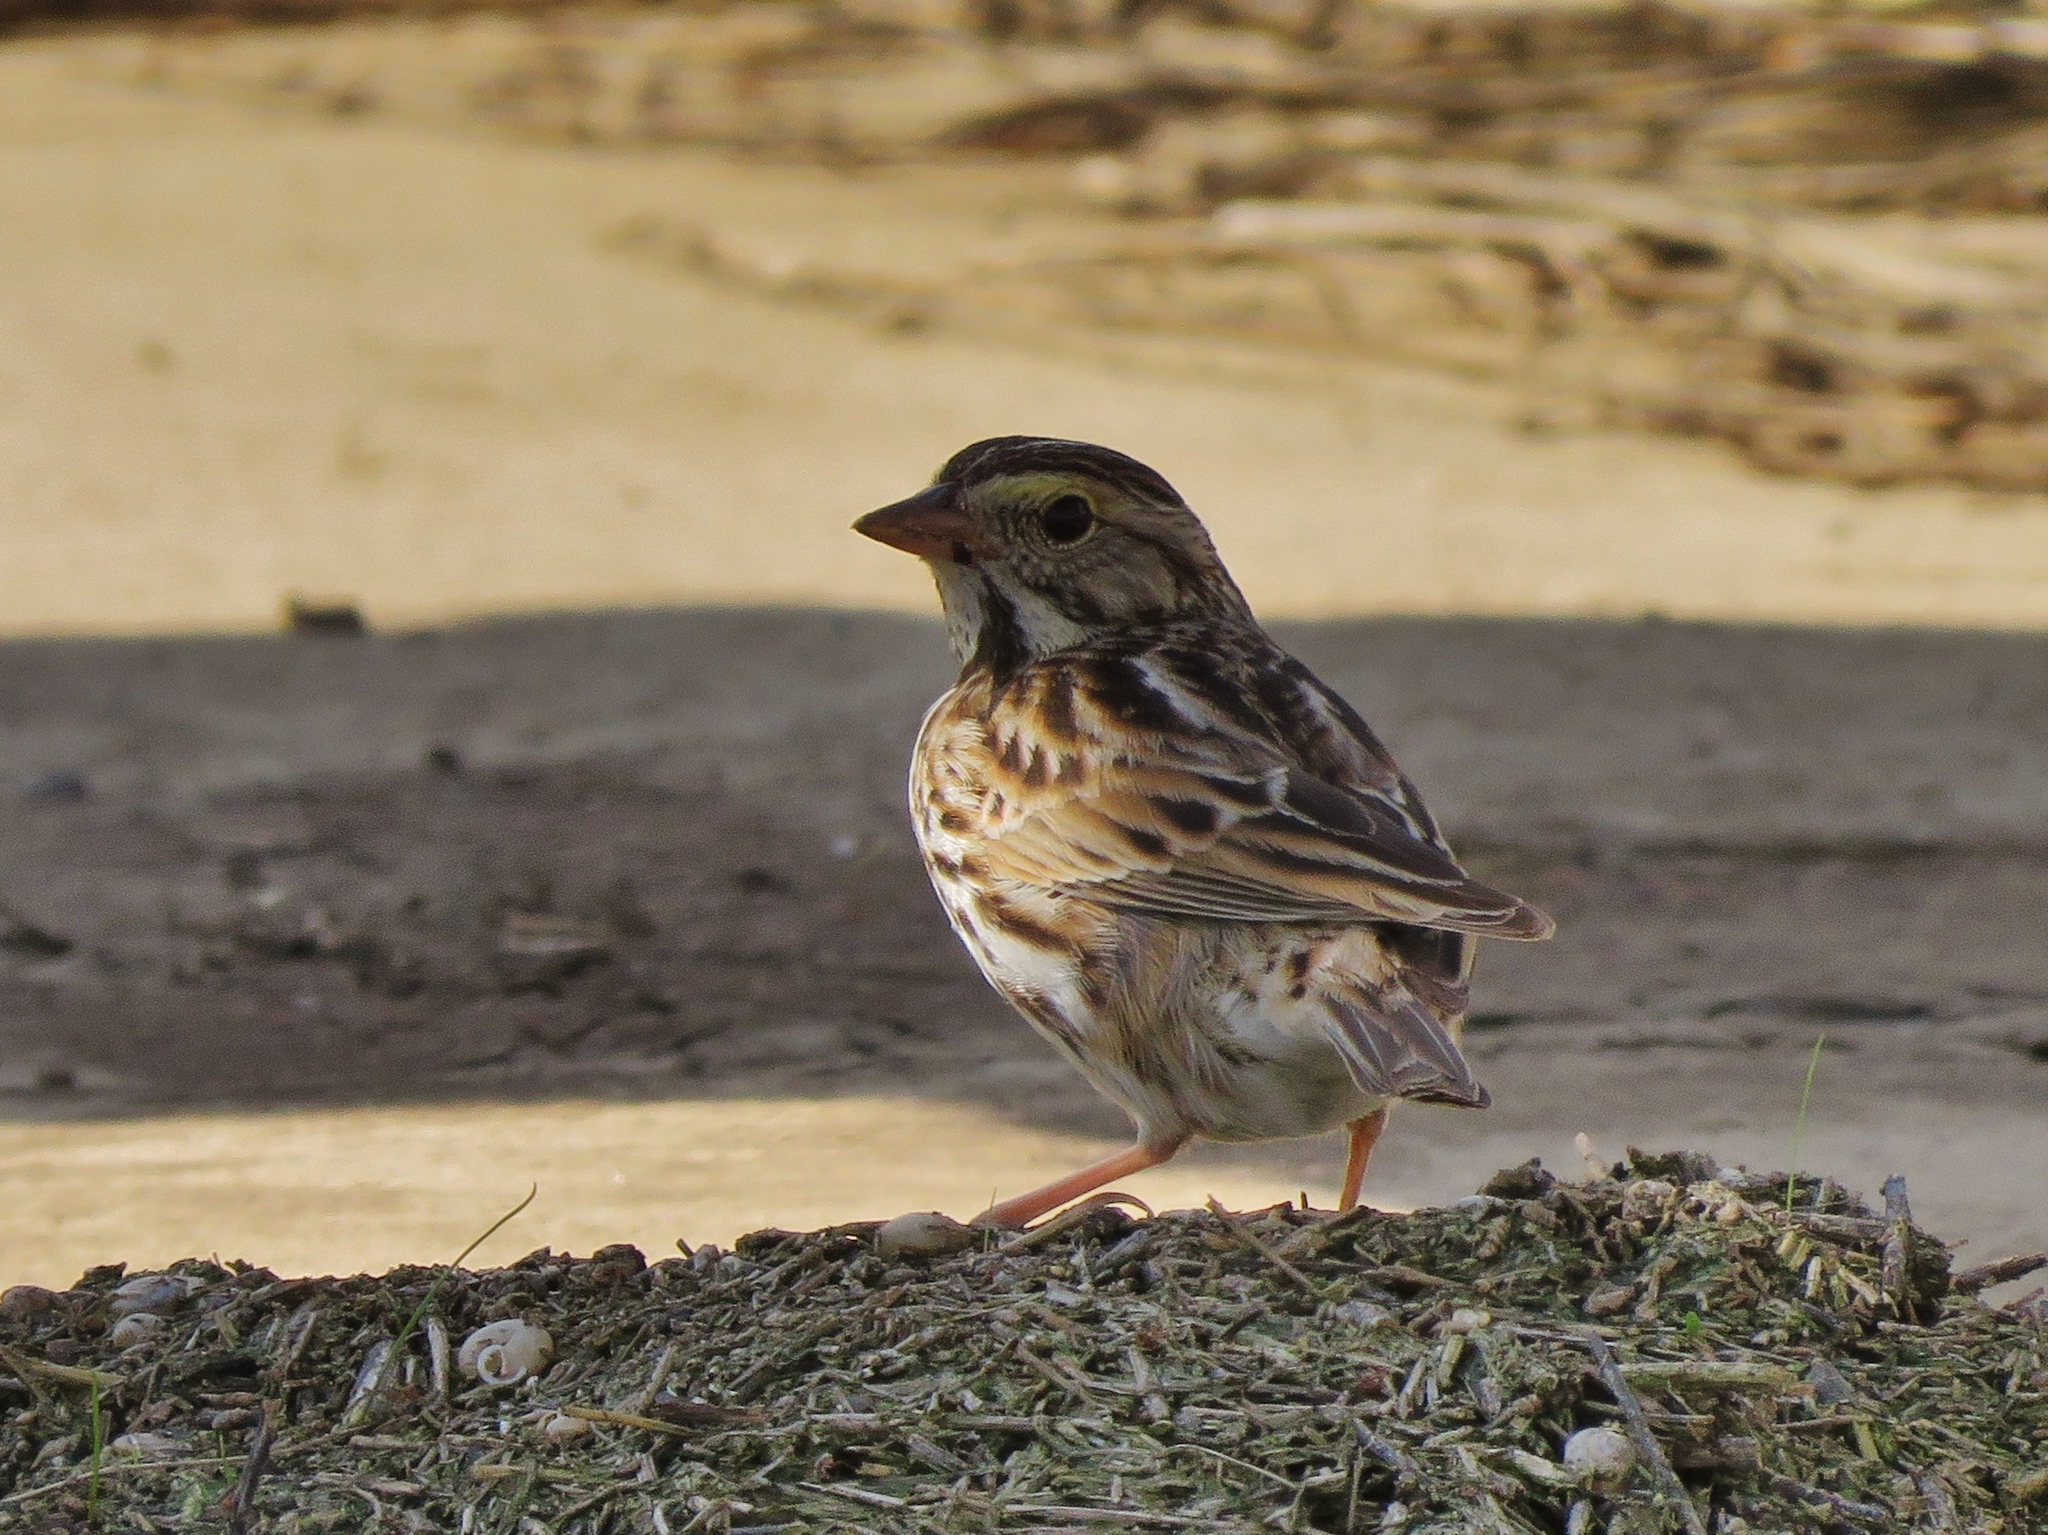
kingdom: Animalia
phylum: Chordata
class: Aves
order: Passeriformes
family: Passerellidae
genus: Passerculus
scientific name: Passerculus sandwichensis
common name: Savannah sparrow
